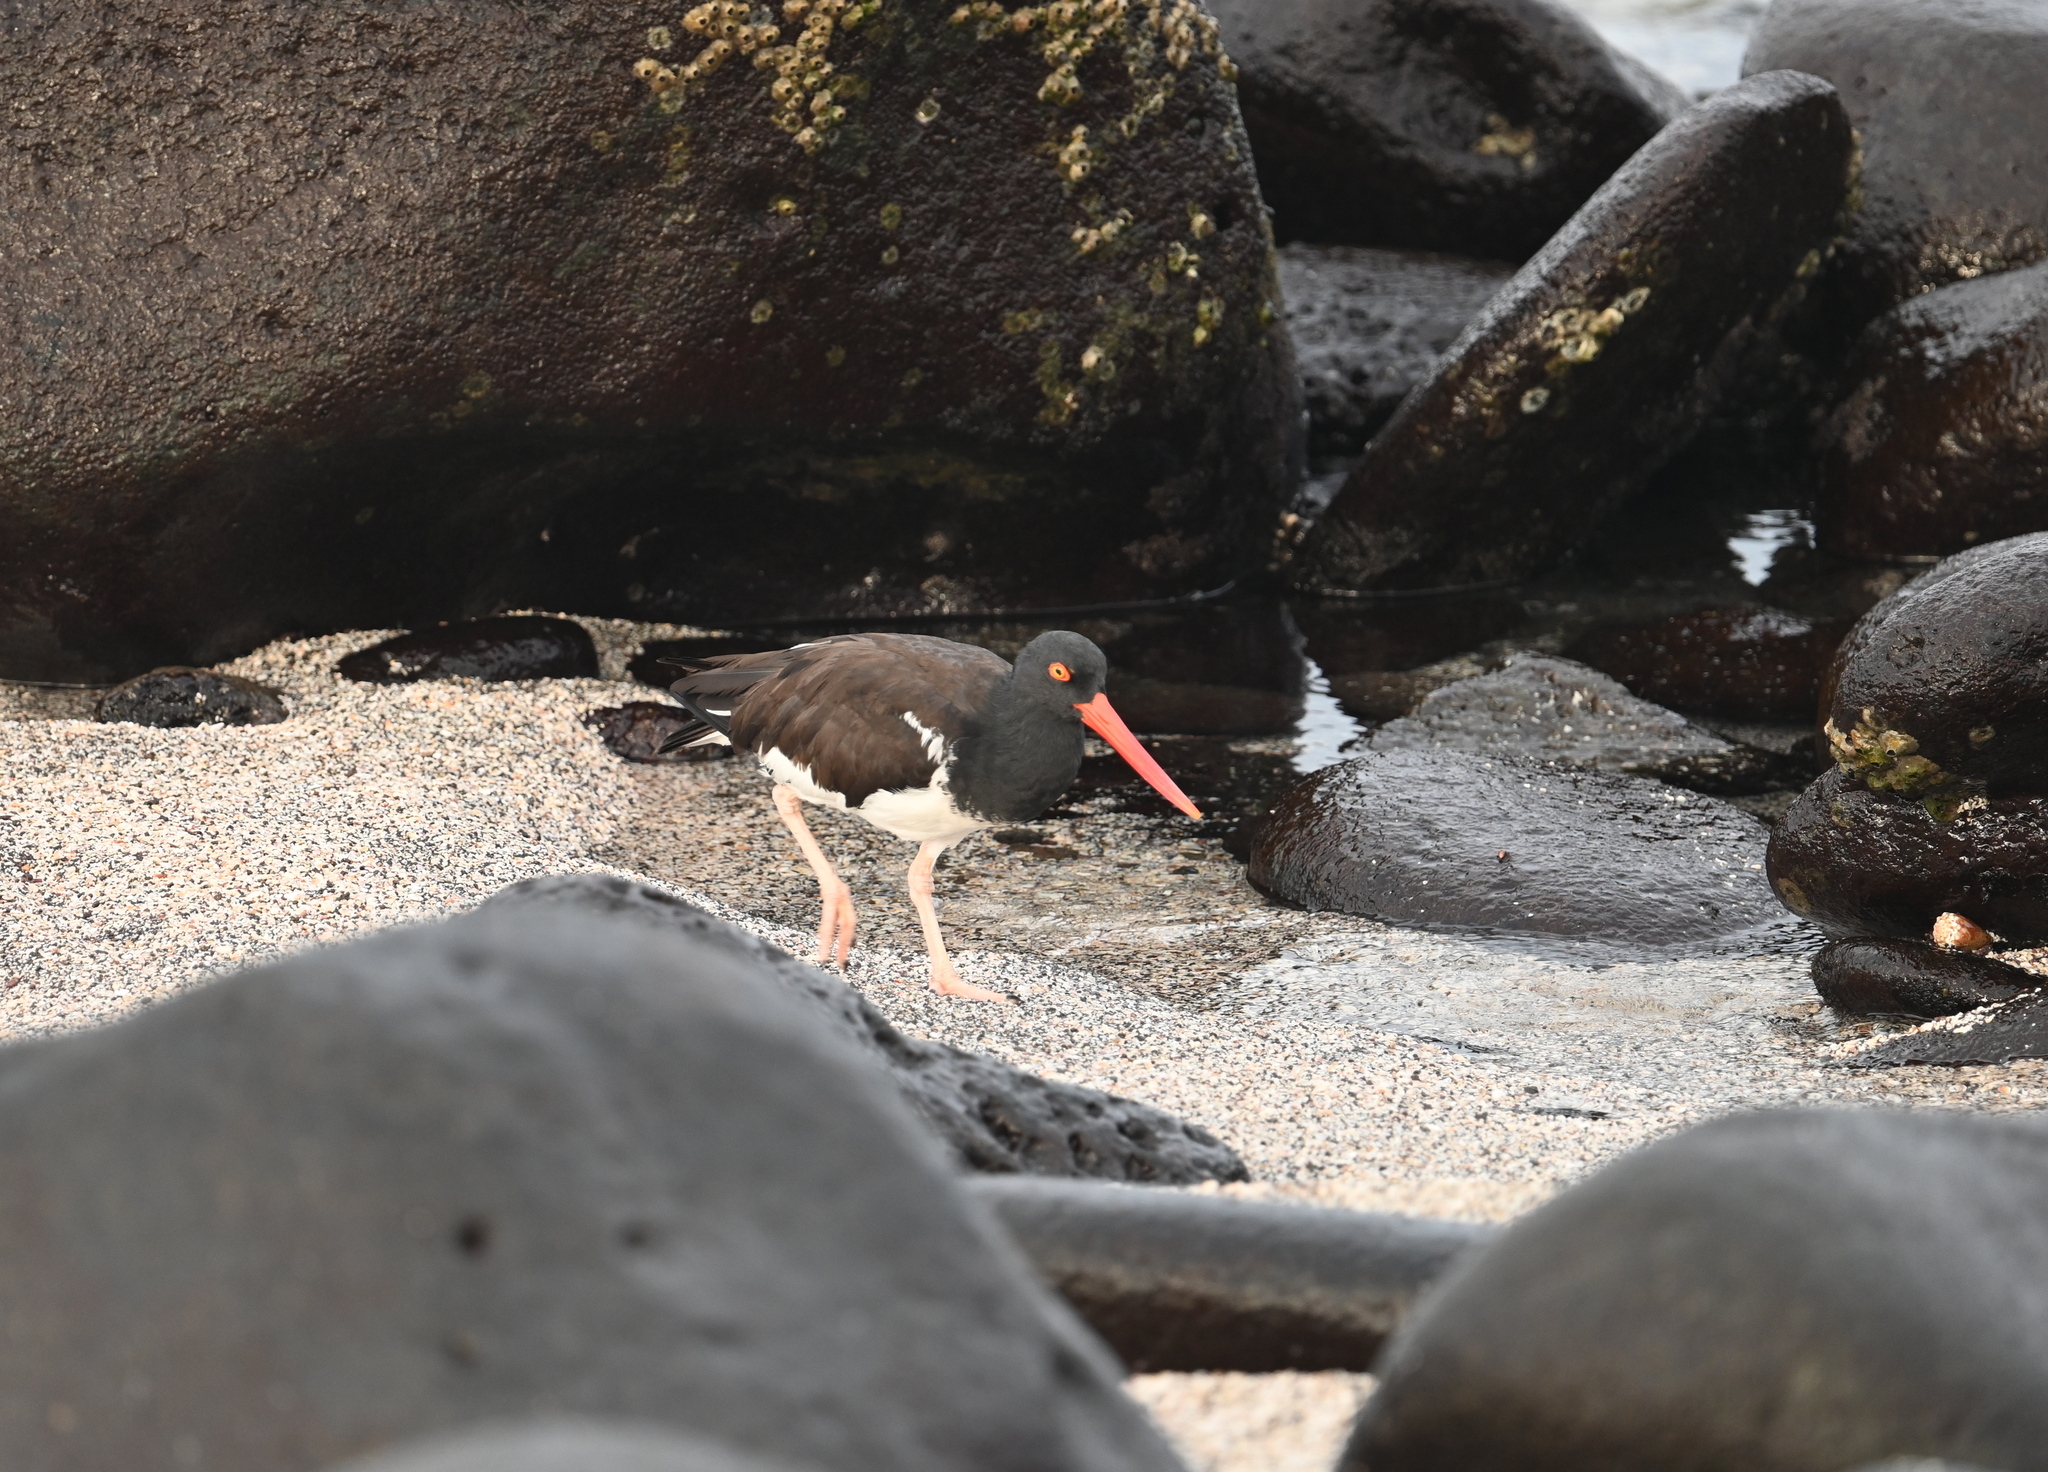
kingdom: Animalia
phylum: Chordata
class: Aves
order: Charadriiformes
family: Haematopodidae
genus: Haematopus
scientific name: Haematopus palliatus
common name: American oystercatcher
